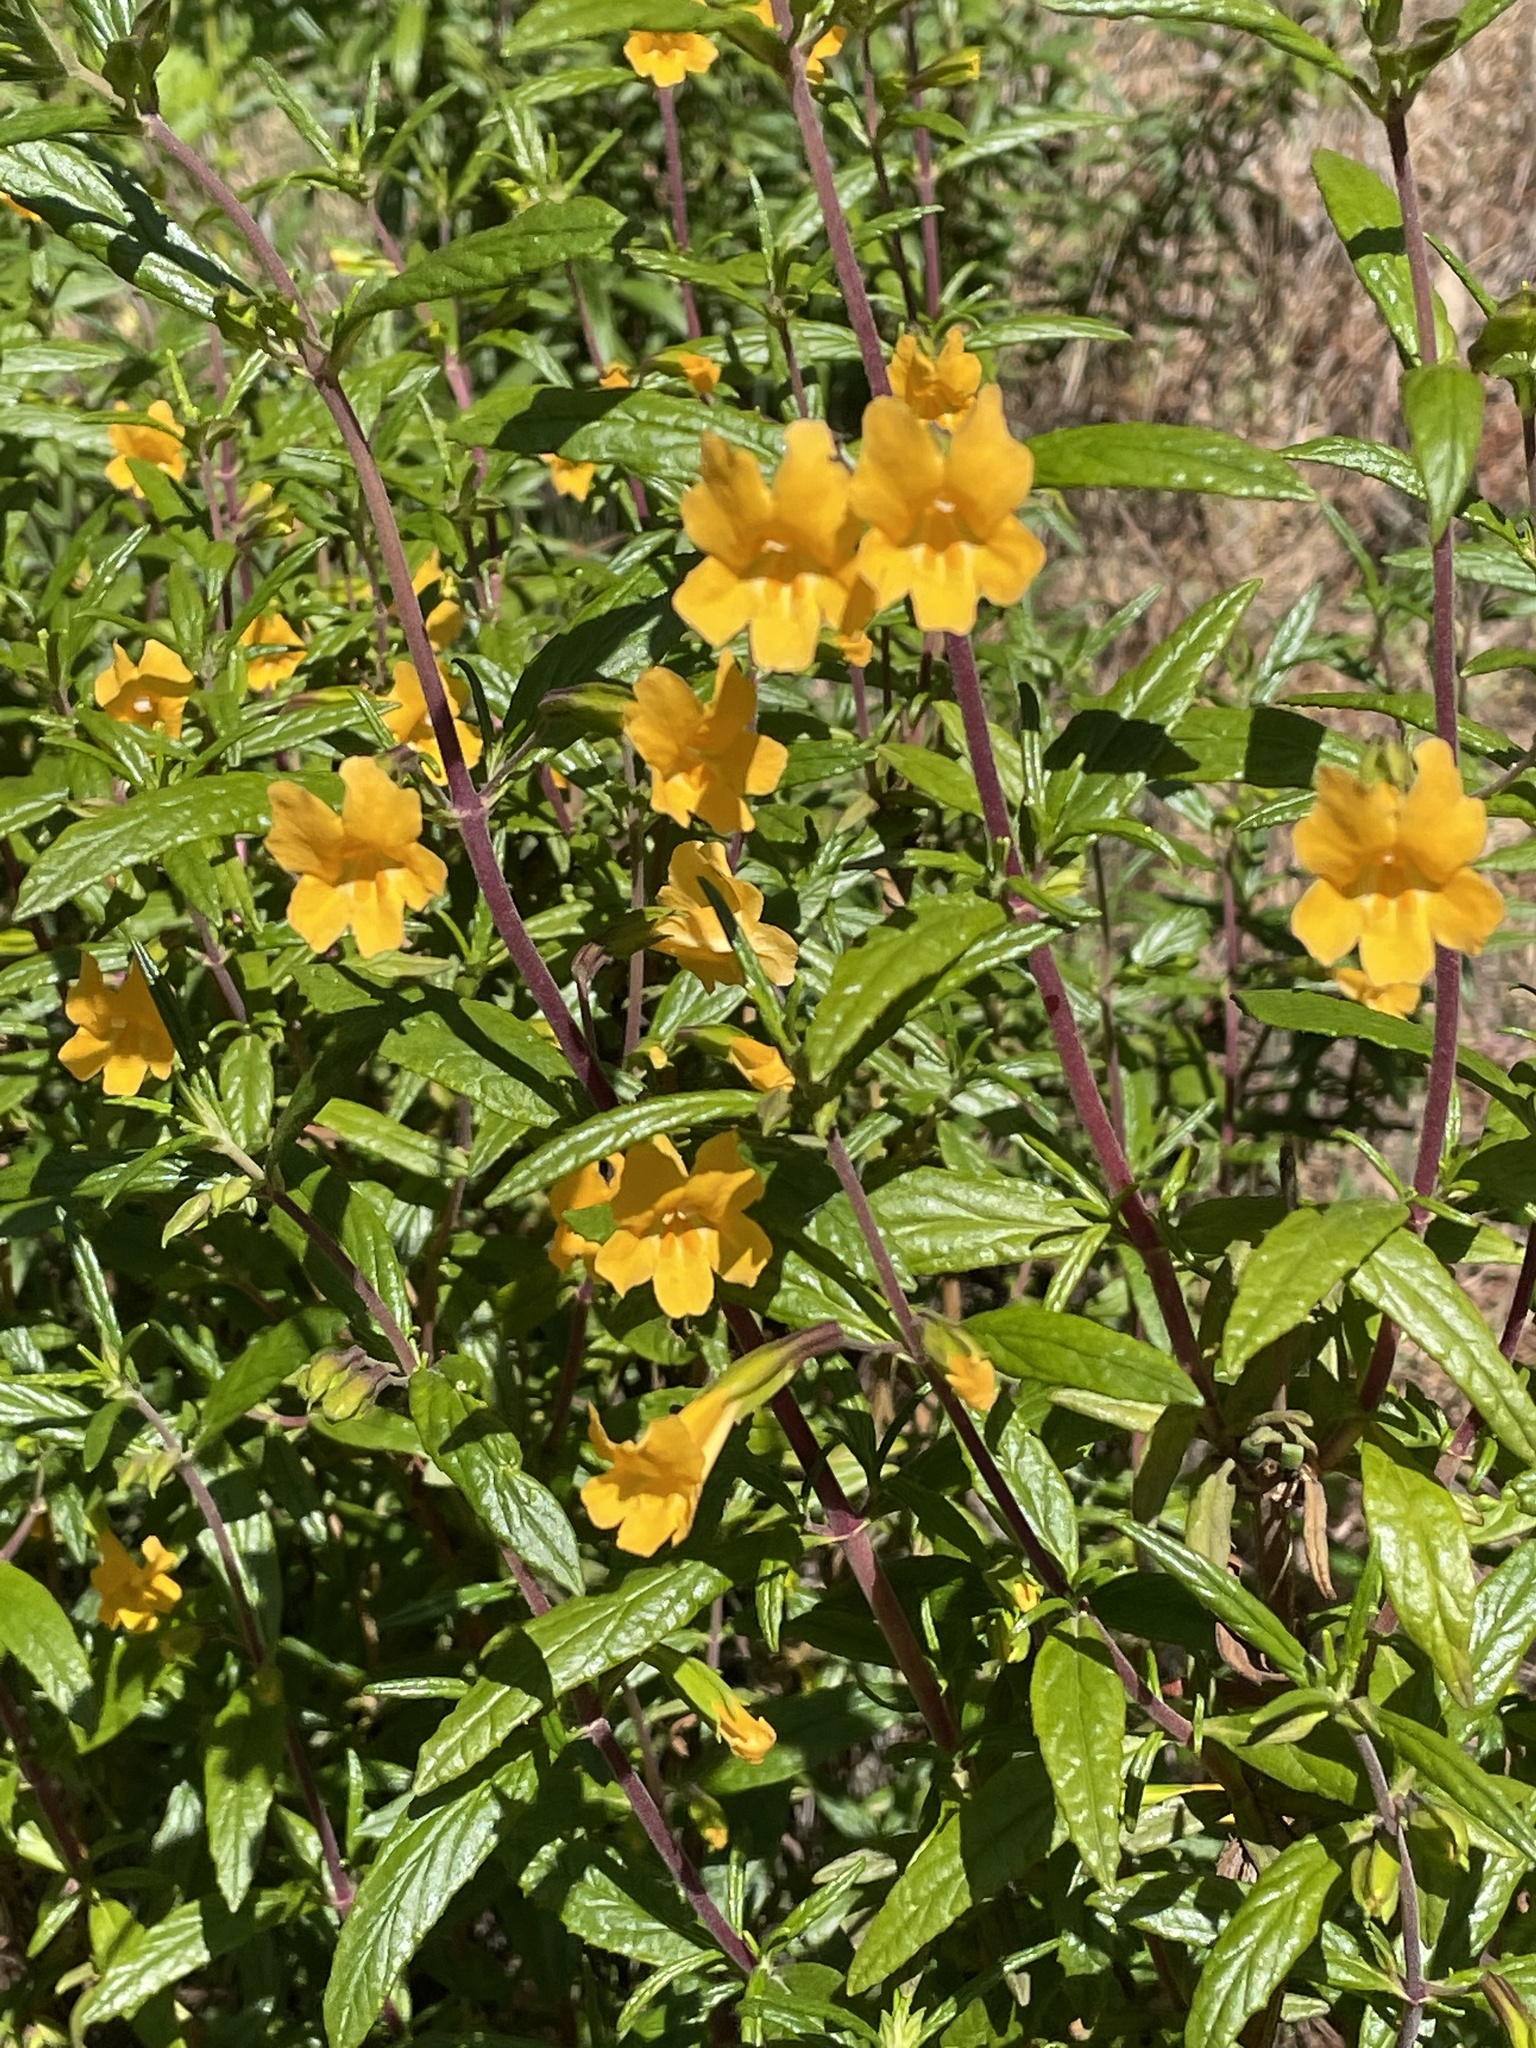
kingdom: Plantae
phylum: Tracheophyta
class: Magnoliopsida
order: Lamiales
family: Phrymaceae
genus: Diplacus
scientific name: Diplacus aurantiacus
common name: Bush monkey-flower
